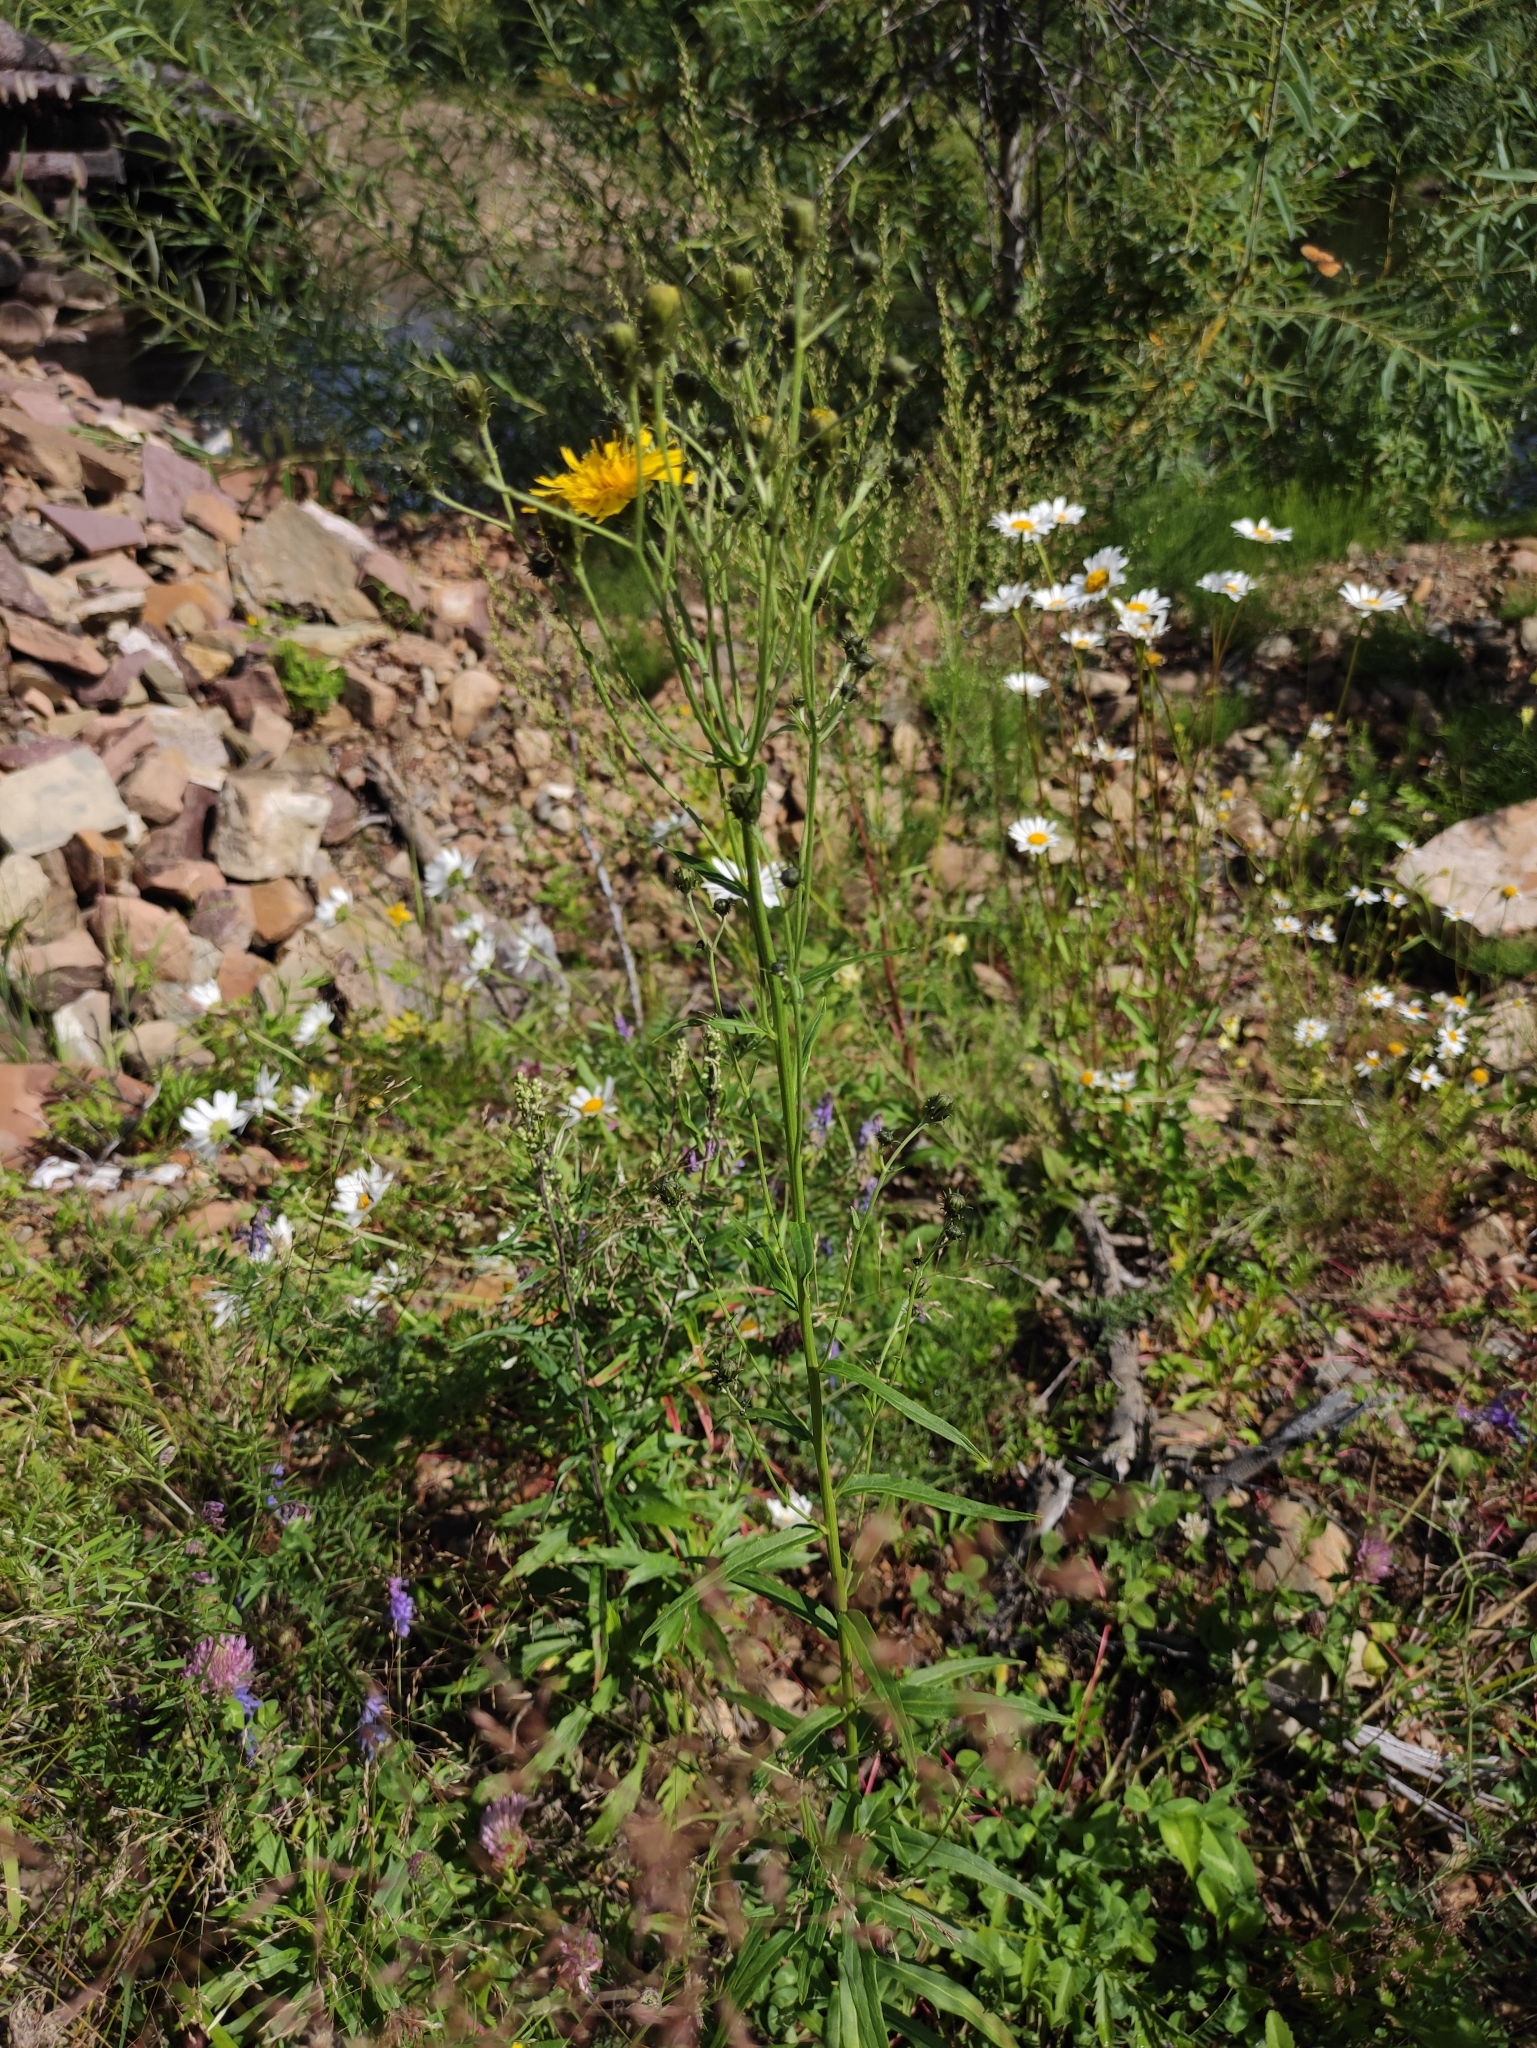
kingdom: Plantae
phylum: Tracheophyta
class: Magnoliopsida
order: Asterales
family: Asteraceae
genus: Hieracium
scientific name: Hieracium umbellatum
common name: Northern hawkweed
